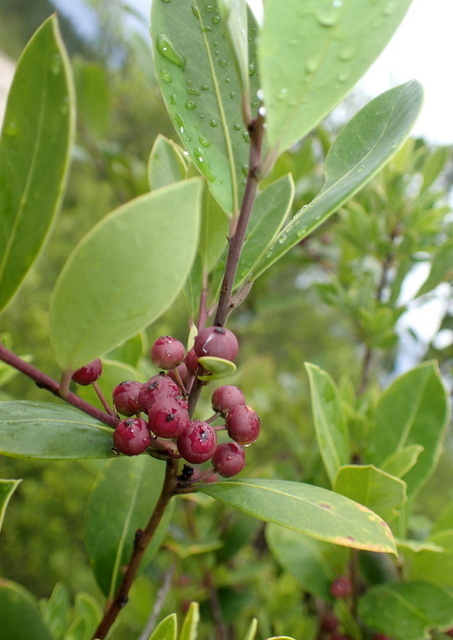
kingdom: Plantae
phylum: Tracheophyta
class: Magnoliopsida
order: Aquifoliales
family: Aquifoliaceae
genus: Ilex
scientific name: Ilex glabra
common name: Bitter gallberry
